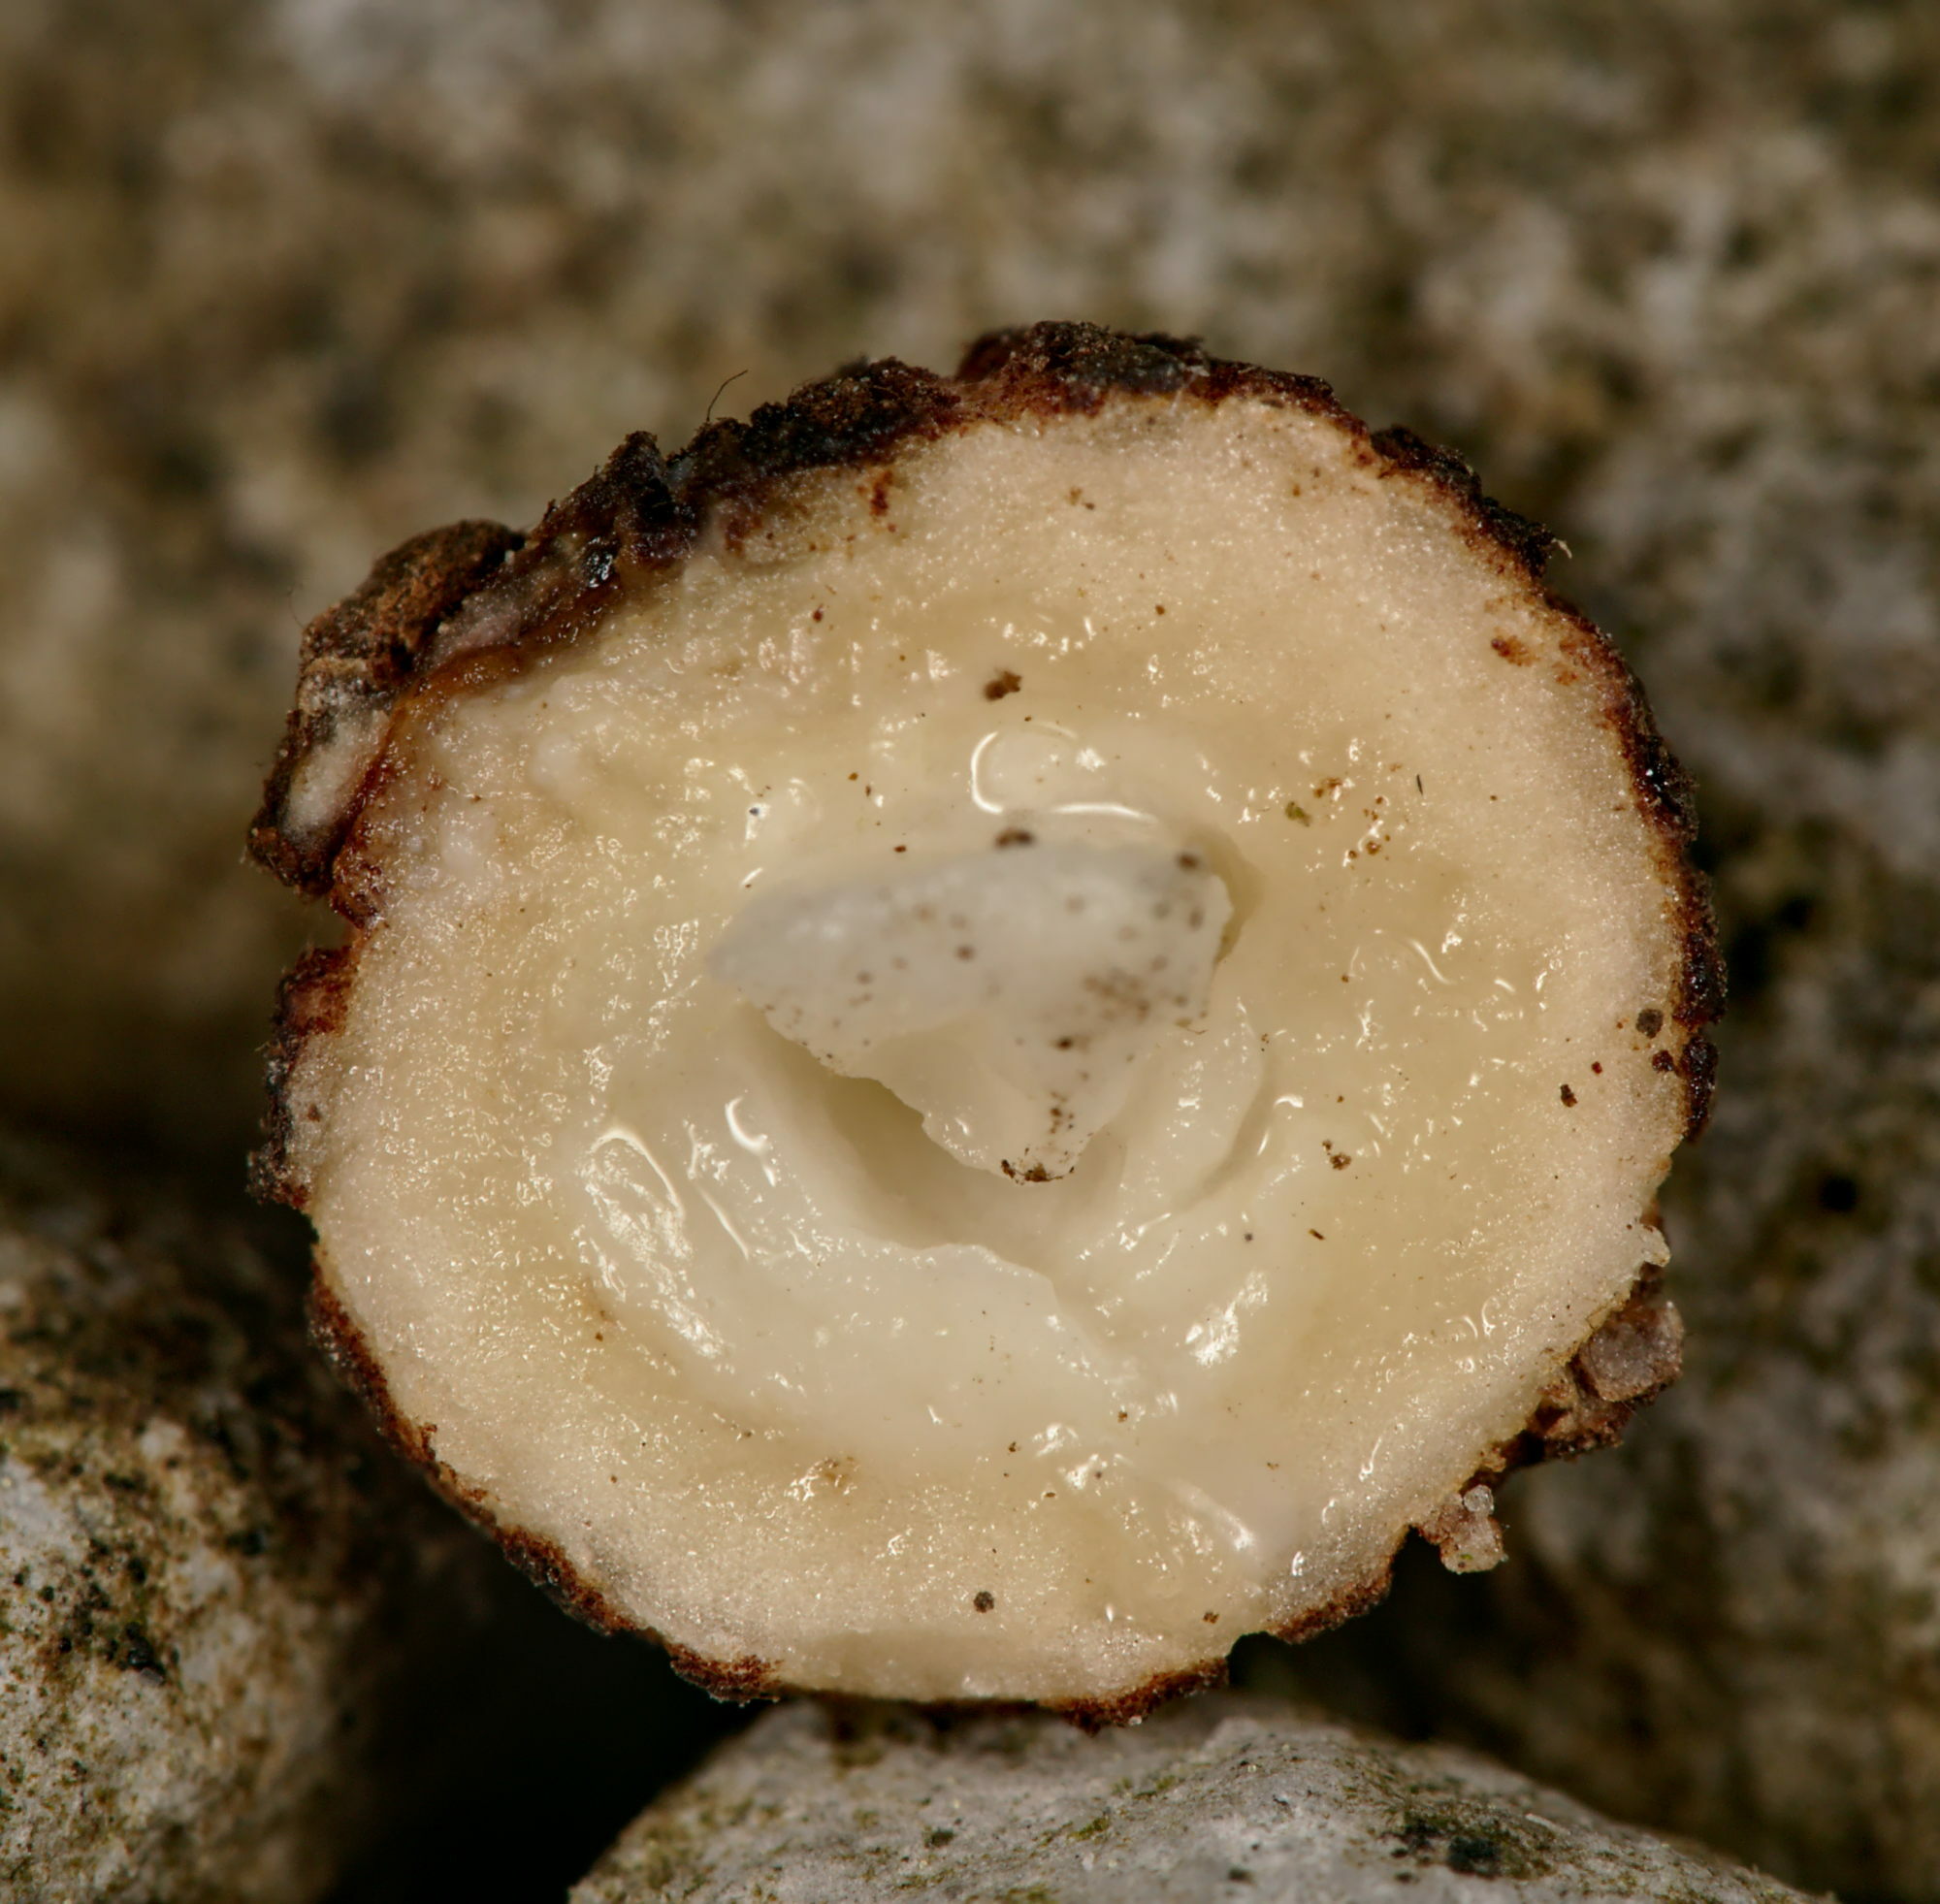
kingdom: Animalia
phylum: Arthropoda
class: Insecta
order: Hymenoptera
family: Cynipidae
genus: Biorhiza
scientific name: Biorhiza pallida
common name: Oak apple
